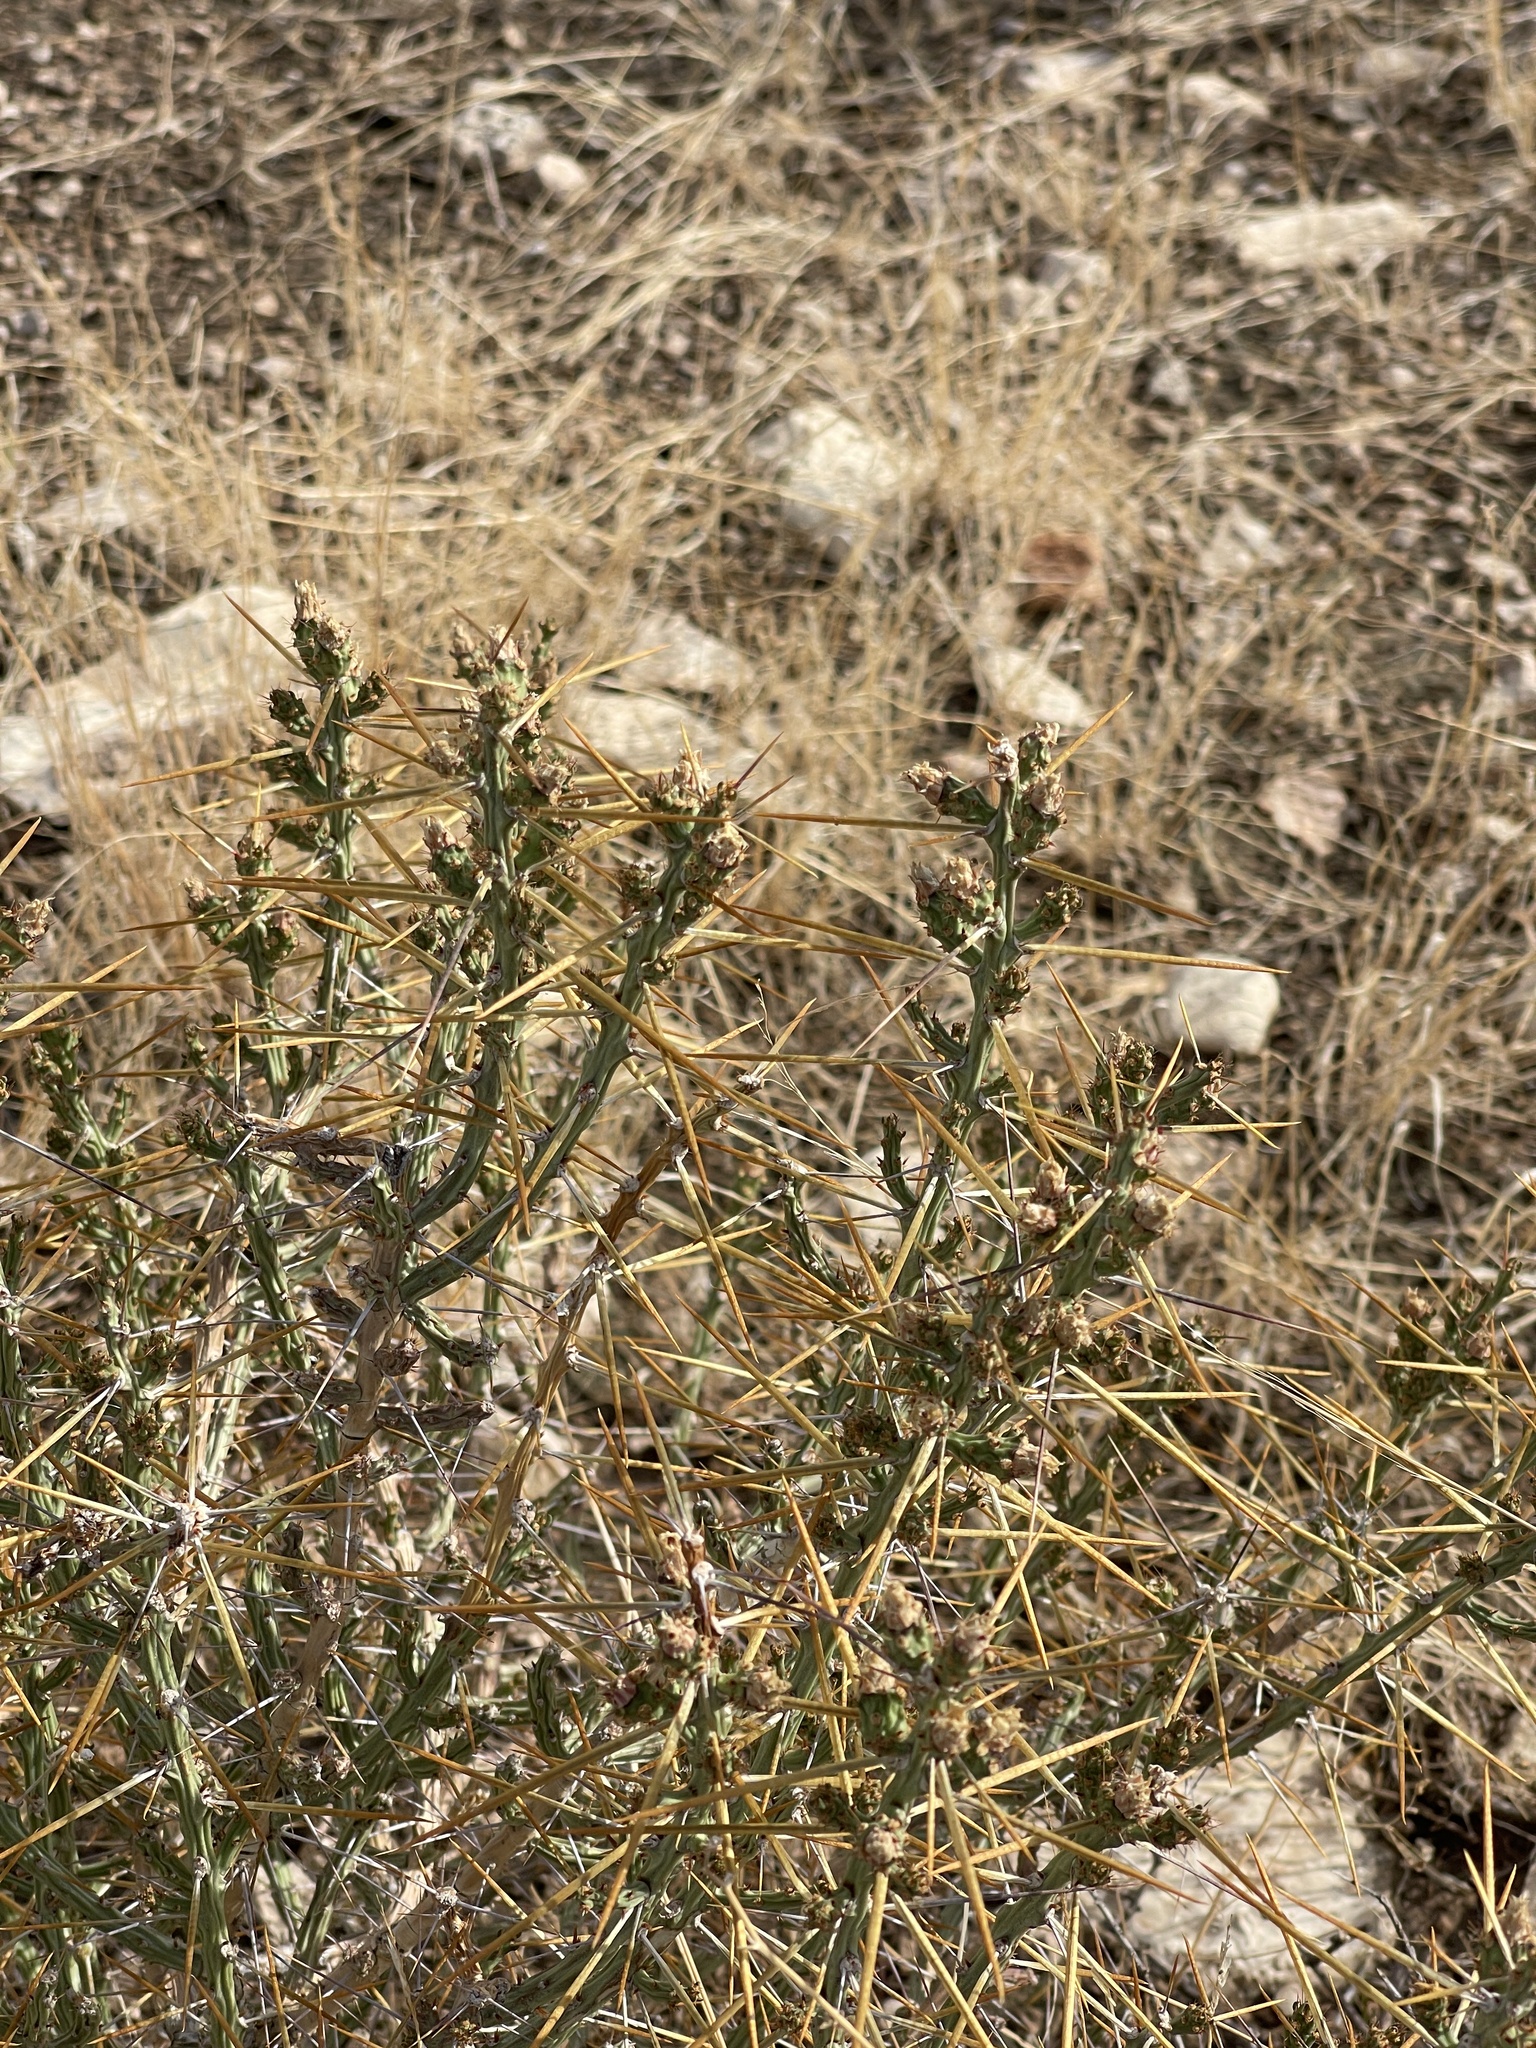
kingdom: Plantae
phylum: Tracheophyta
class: Magnoliopsida
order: Caryophyllales
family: Cactaceae
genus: Cylindropuntia
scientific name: Cylindropuntia leptocaulis
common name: Christmas cactus
